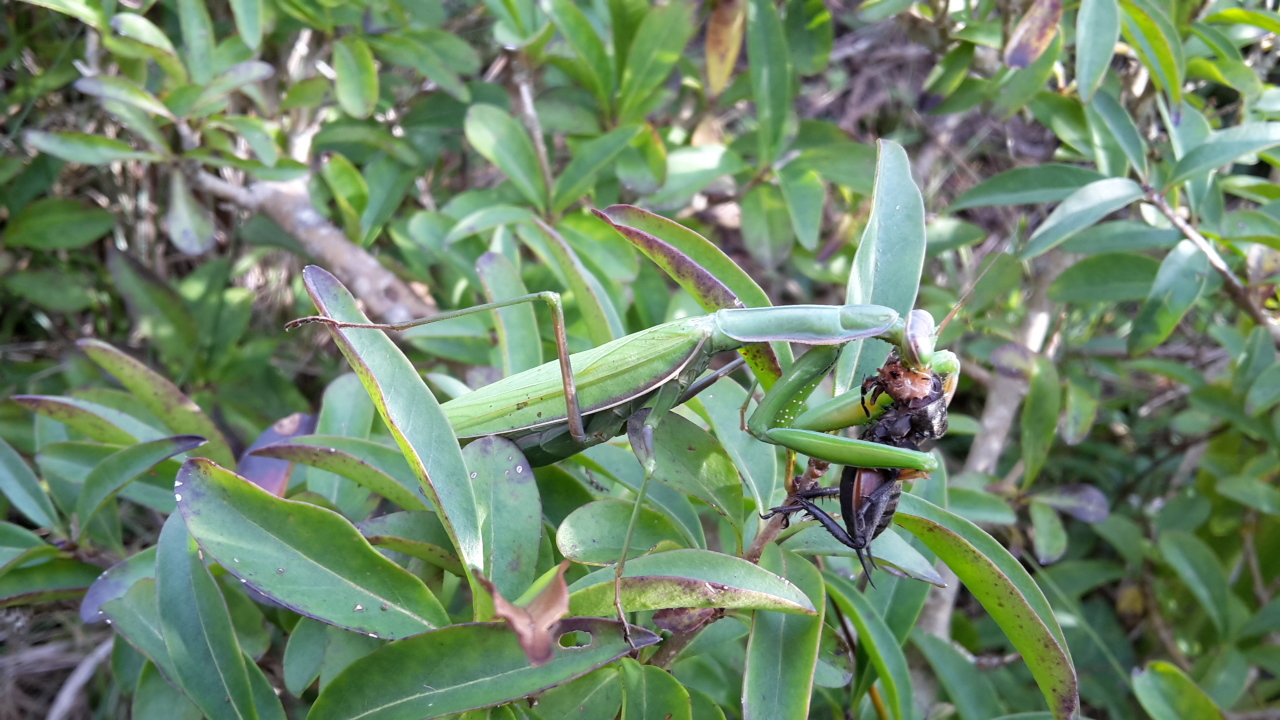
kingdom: Animalia
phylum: Arthropoda
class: Insecta
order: Mantodea
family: Mantidae
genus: Mantis
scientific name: Mantis religiosa
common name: Praying mantis
